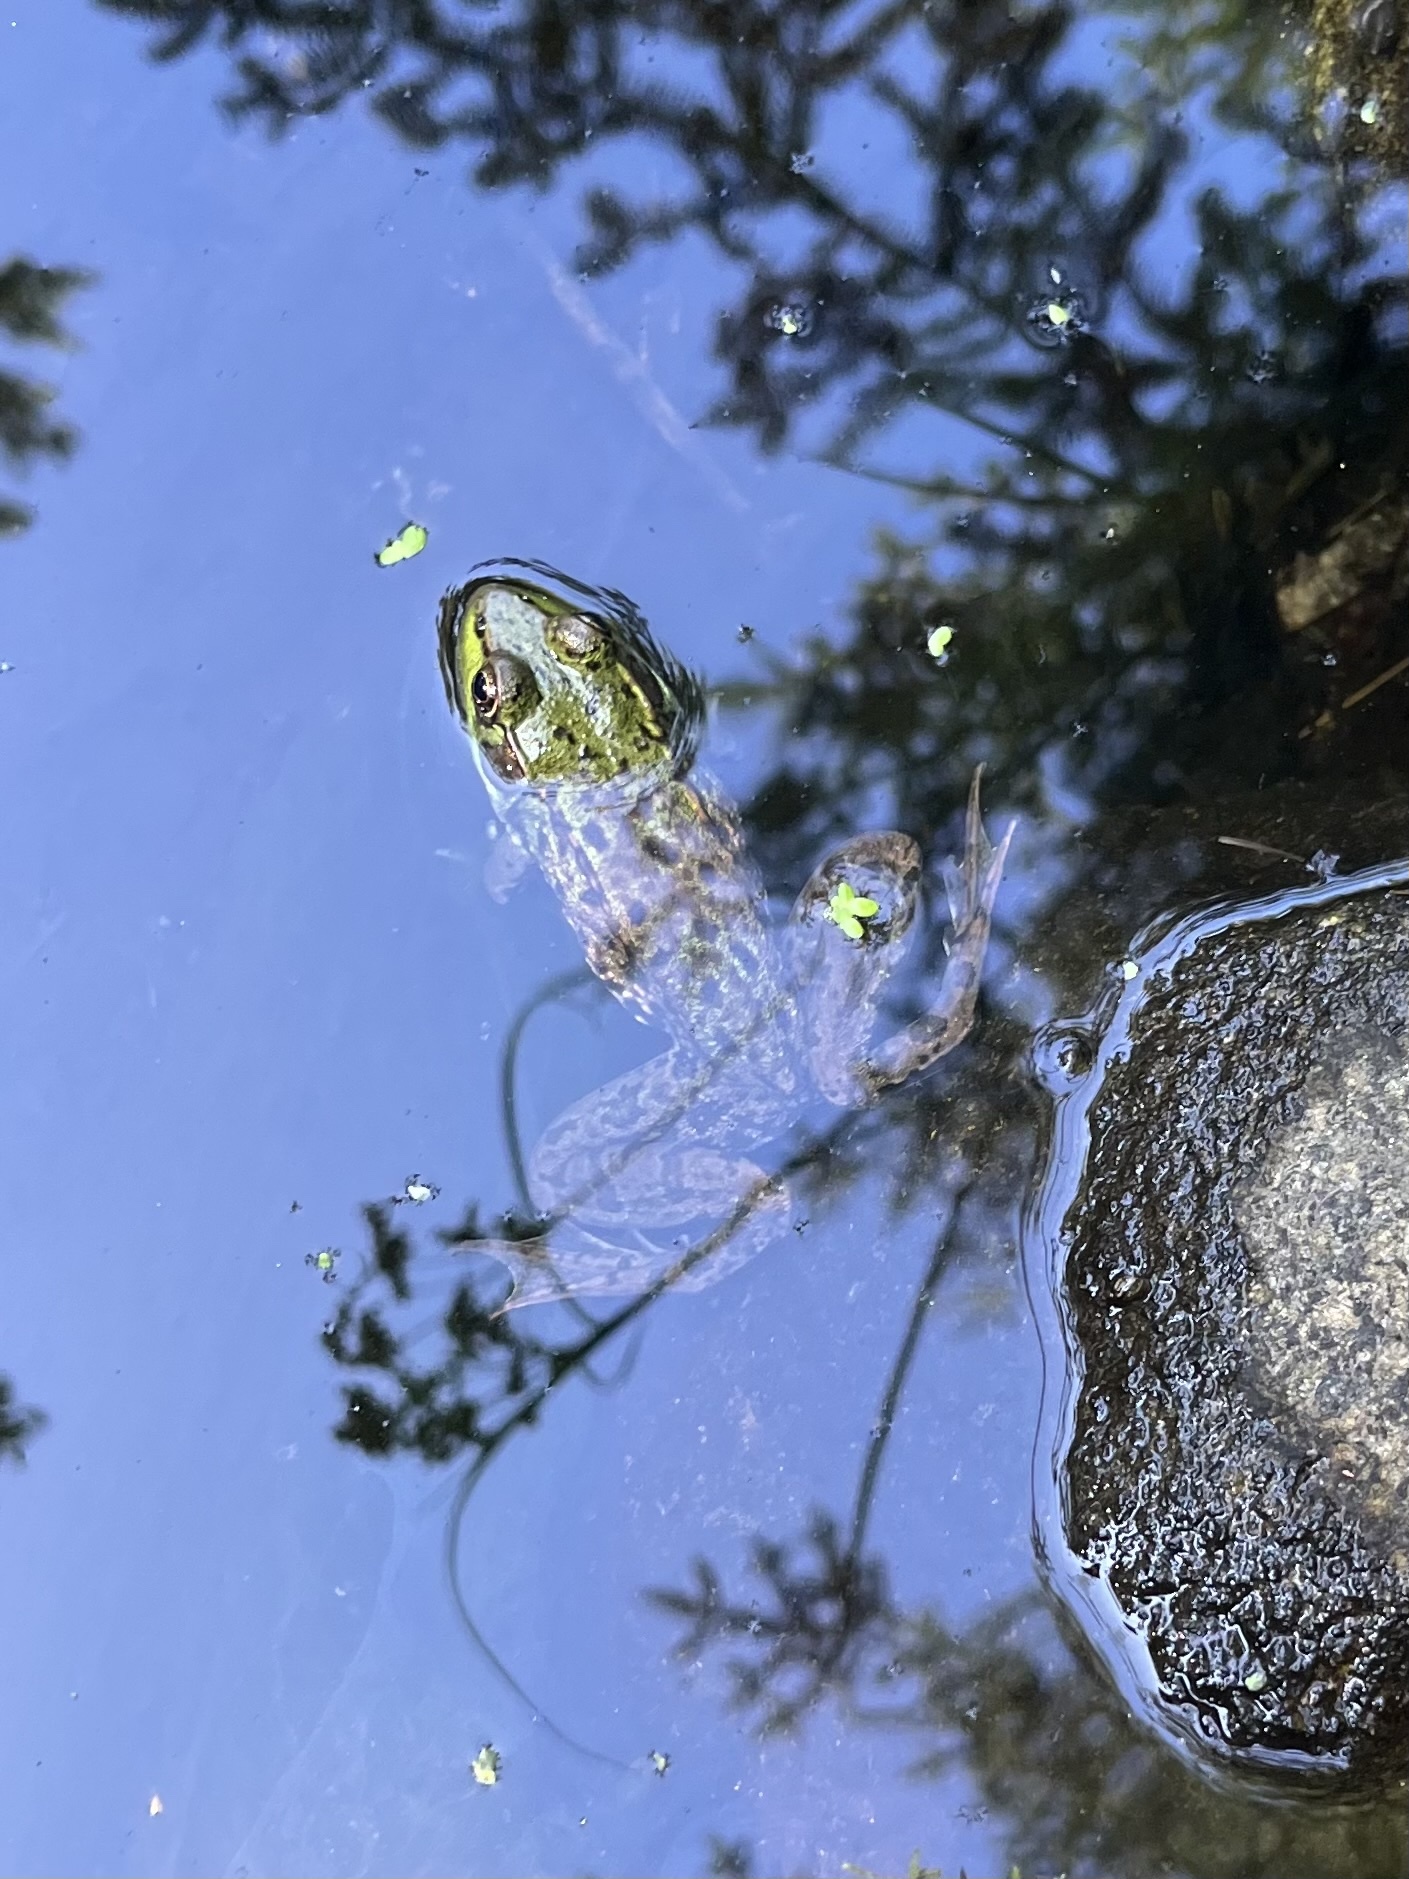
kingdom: Animalia
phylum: Chordata
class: Amphibia
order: Anura
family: Ranidae
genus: Lithobates
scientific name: Lithobates clamitans
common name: Green frog
